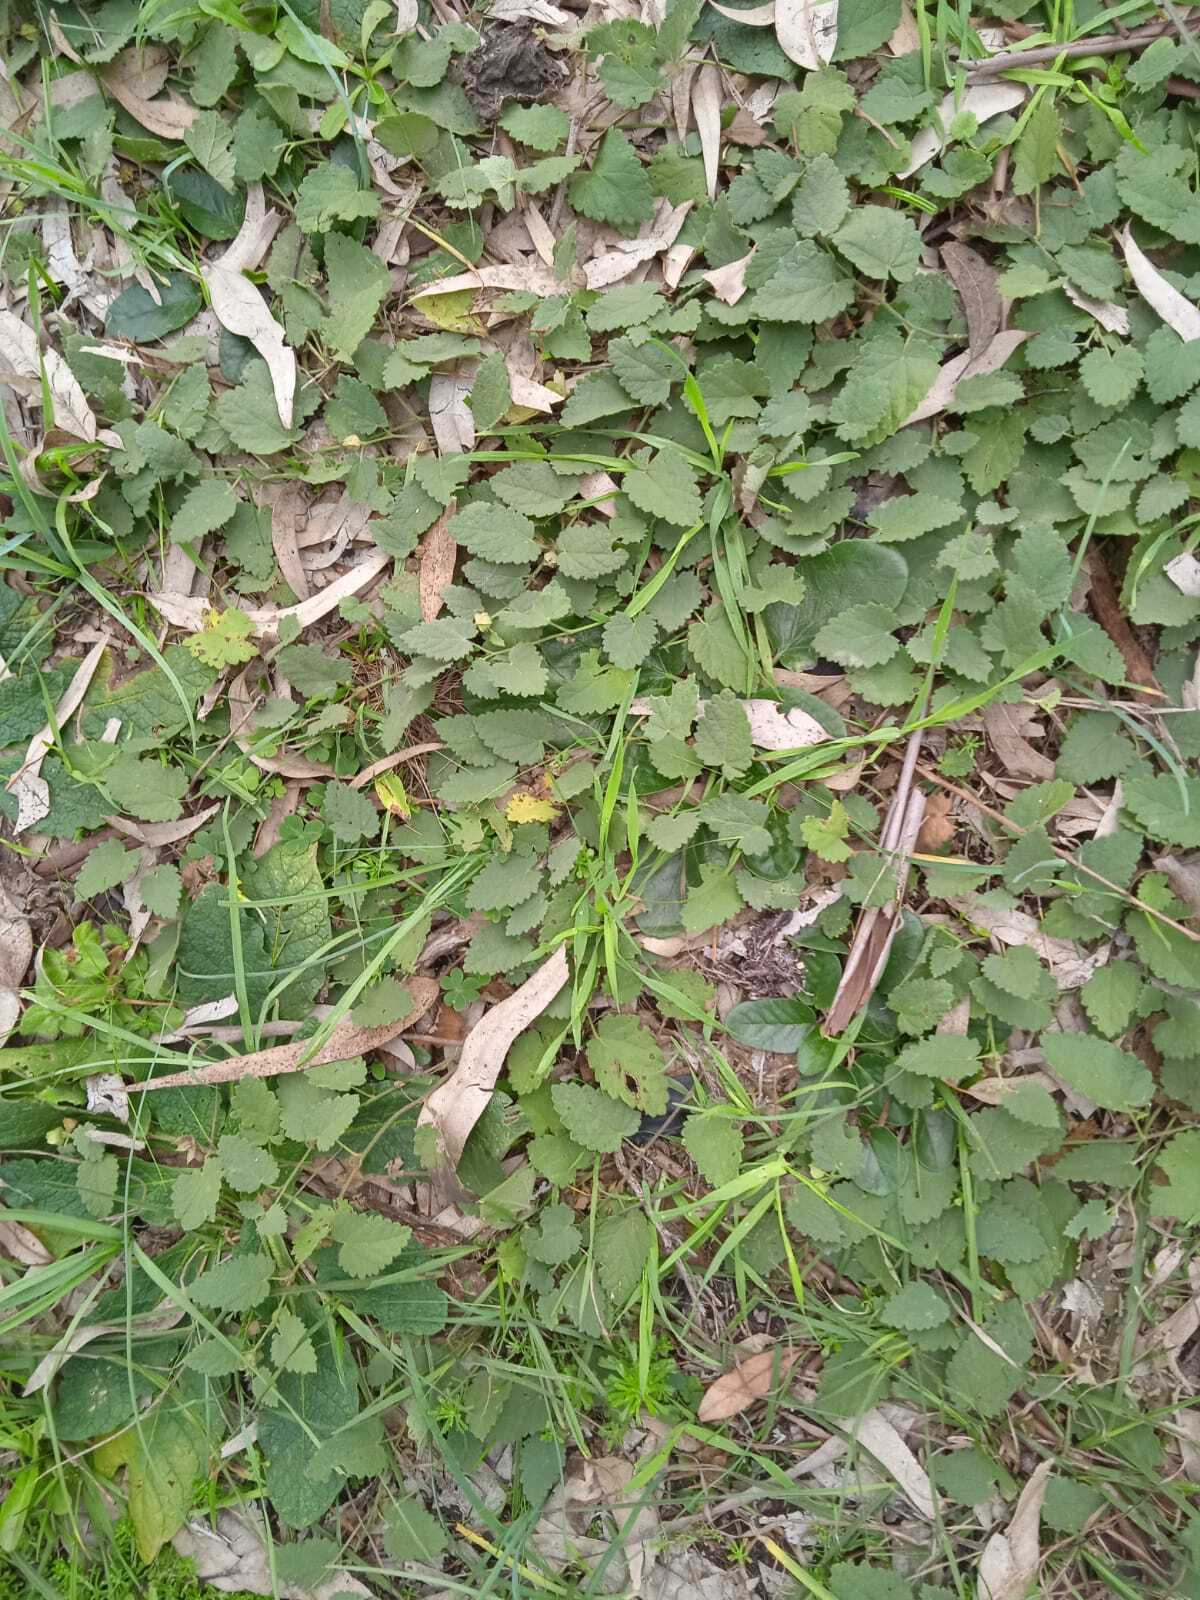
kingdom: Plantae
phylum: Tracheophyta
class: Magnoliopsida
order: Malvales
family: Malvaceae
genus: Krapovickasia
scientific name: Krapovickasia flavescens
